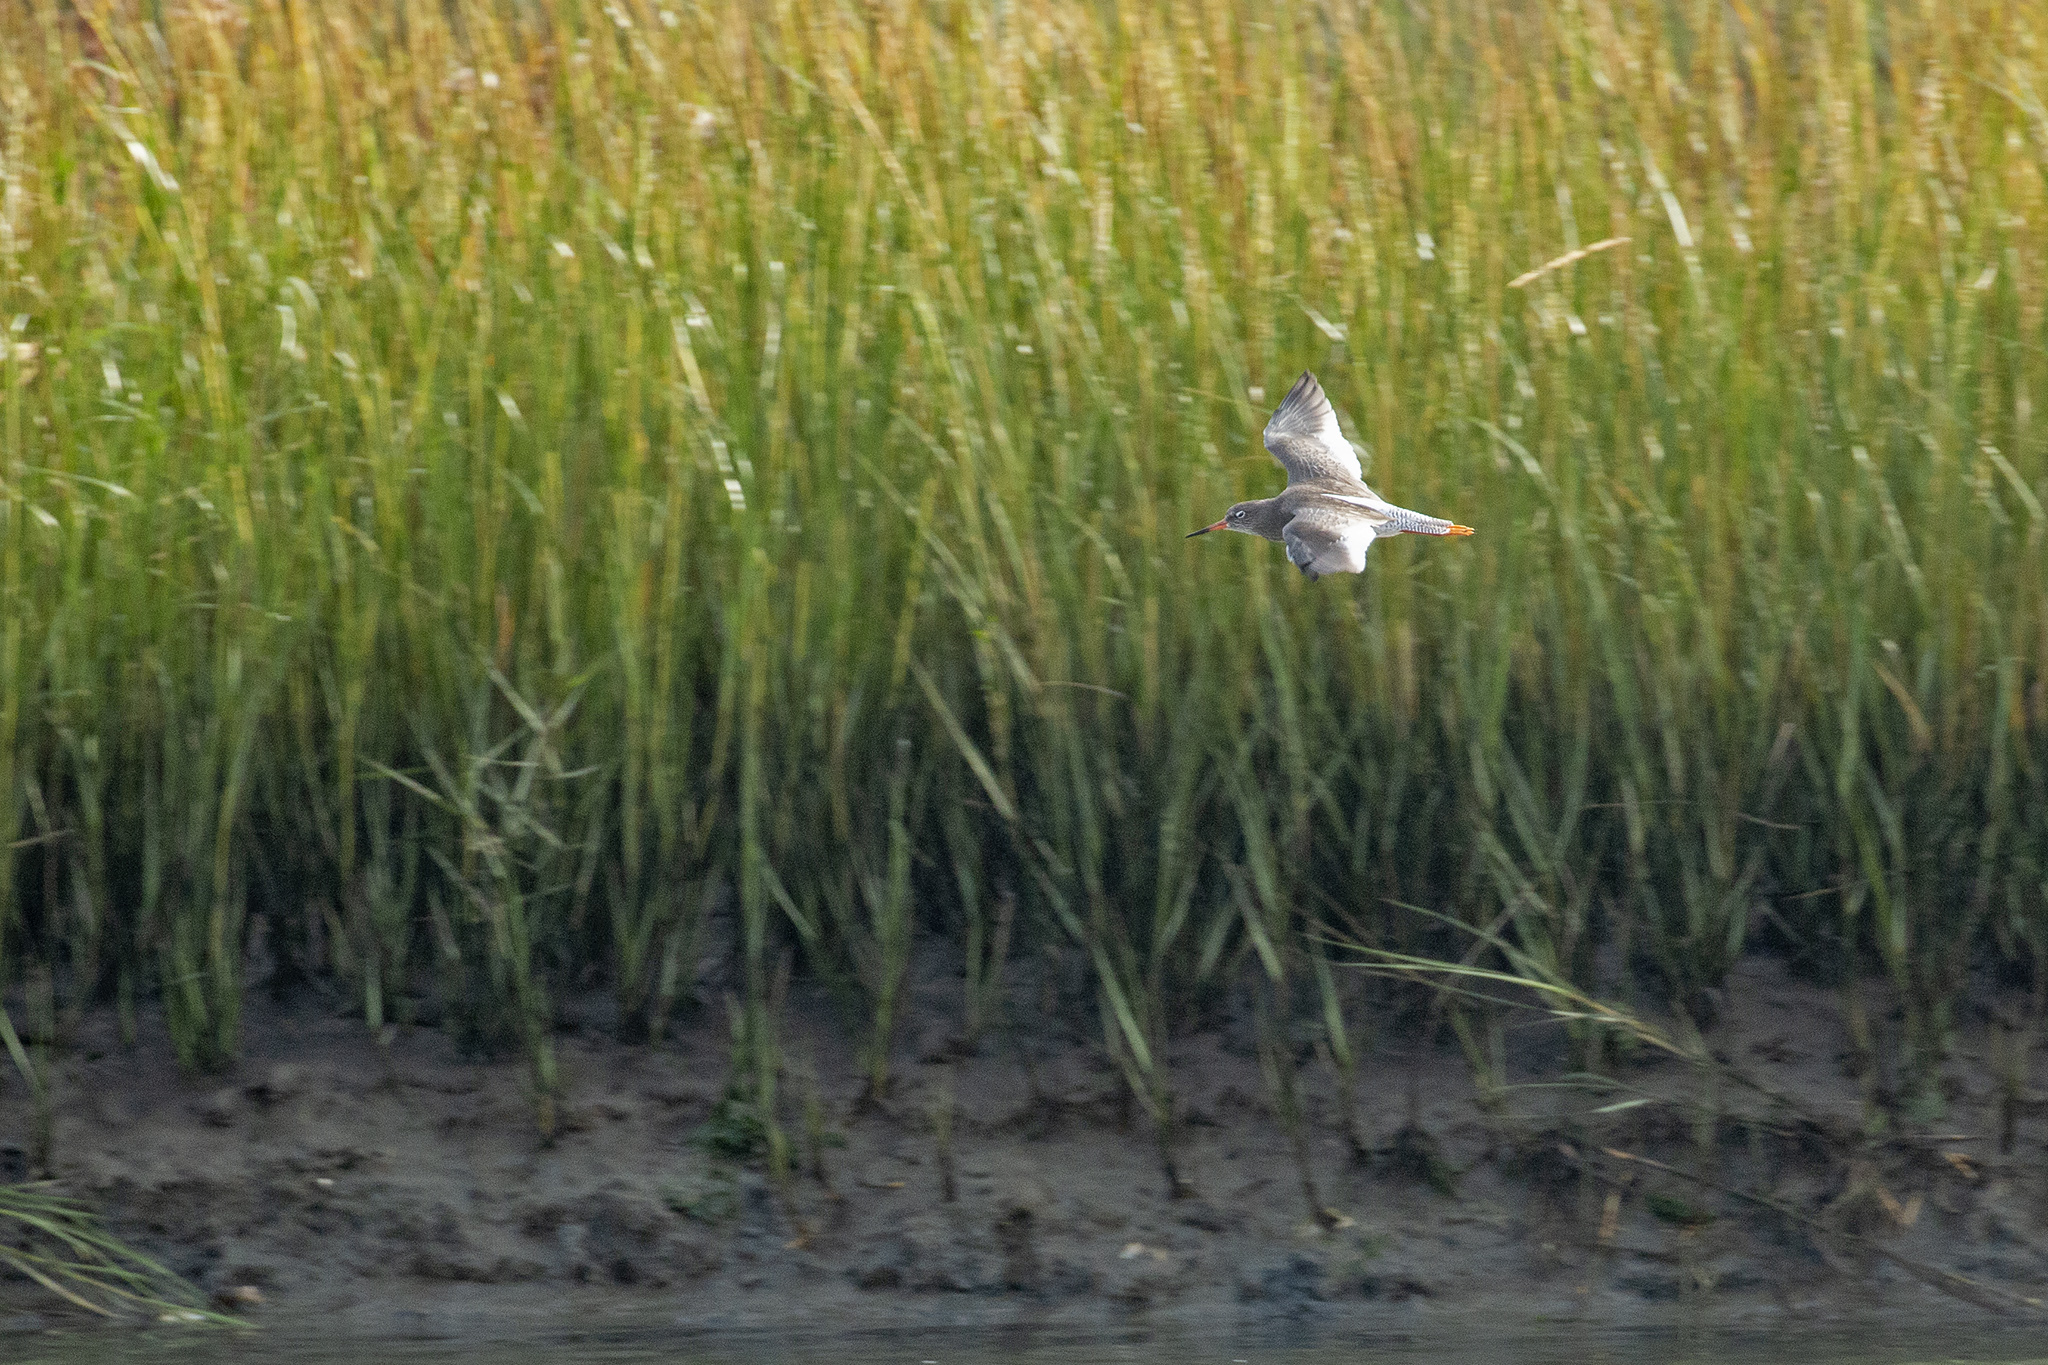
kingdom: Animalia
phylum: Chordata
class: Aves
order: Charadriiformes
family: Scolopacidae
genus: Tringa
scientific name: Tringa totanus
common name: Common redshank
